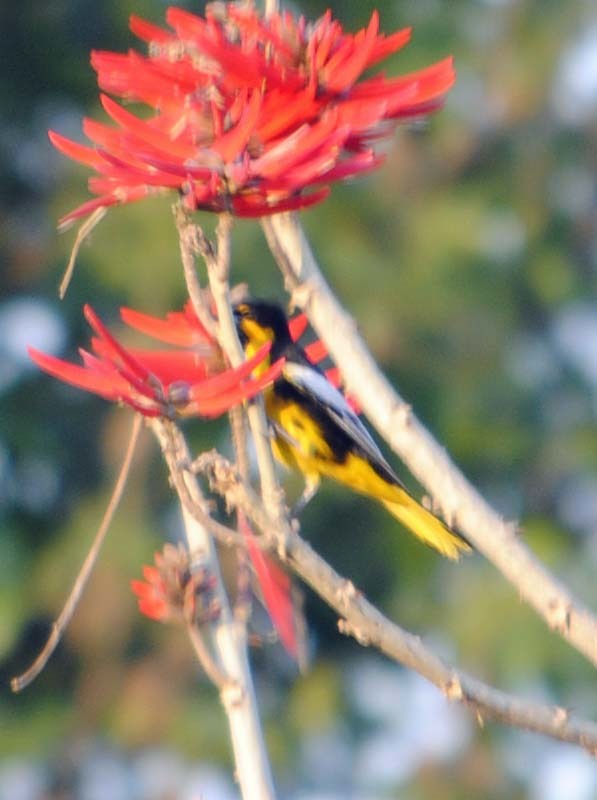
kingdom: Animalia
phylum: Chordata
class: Aves
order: Passeriformes
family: Icteridae
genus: Icterus
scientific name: Icterus abeillei
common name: Black-backed oriole
